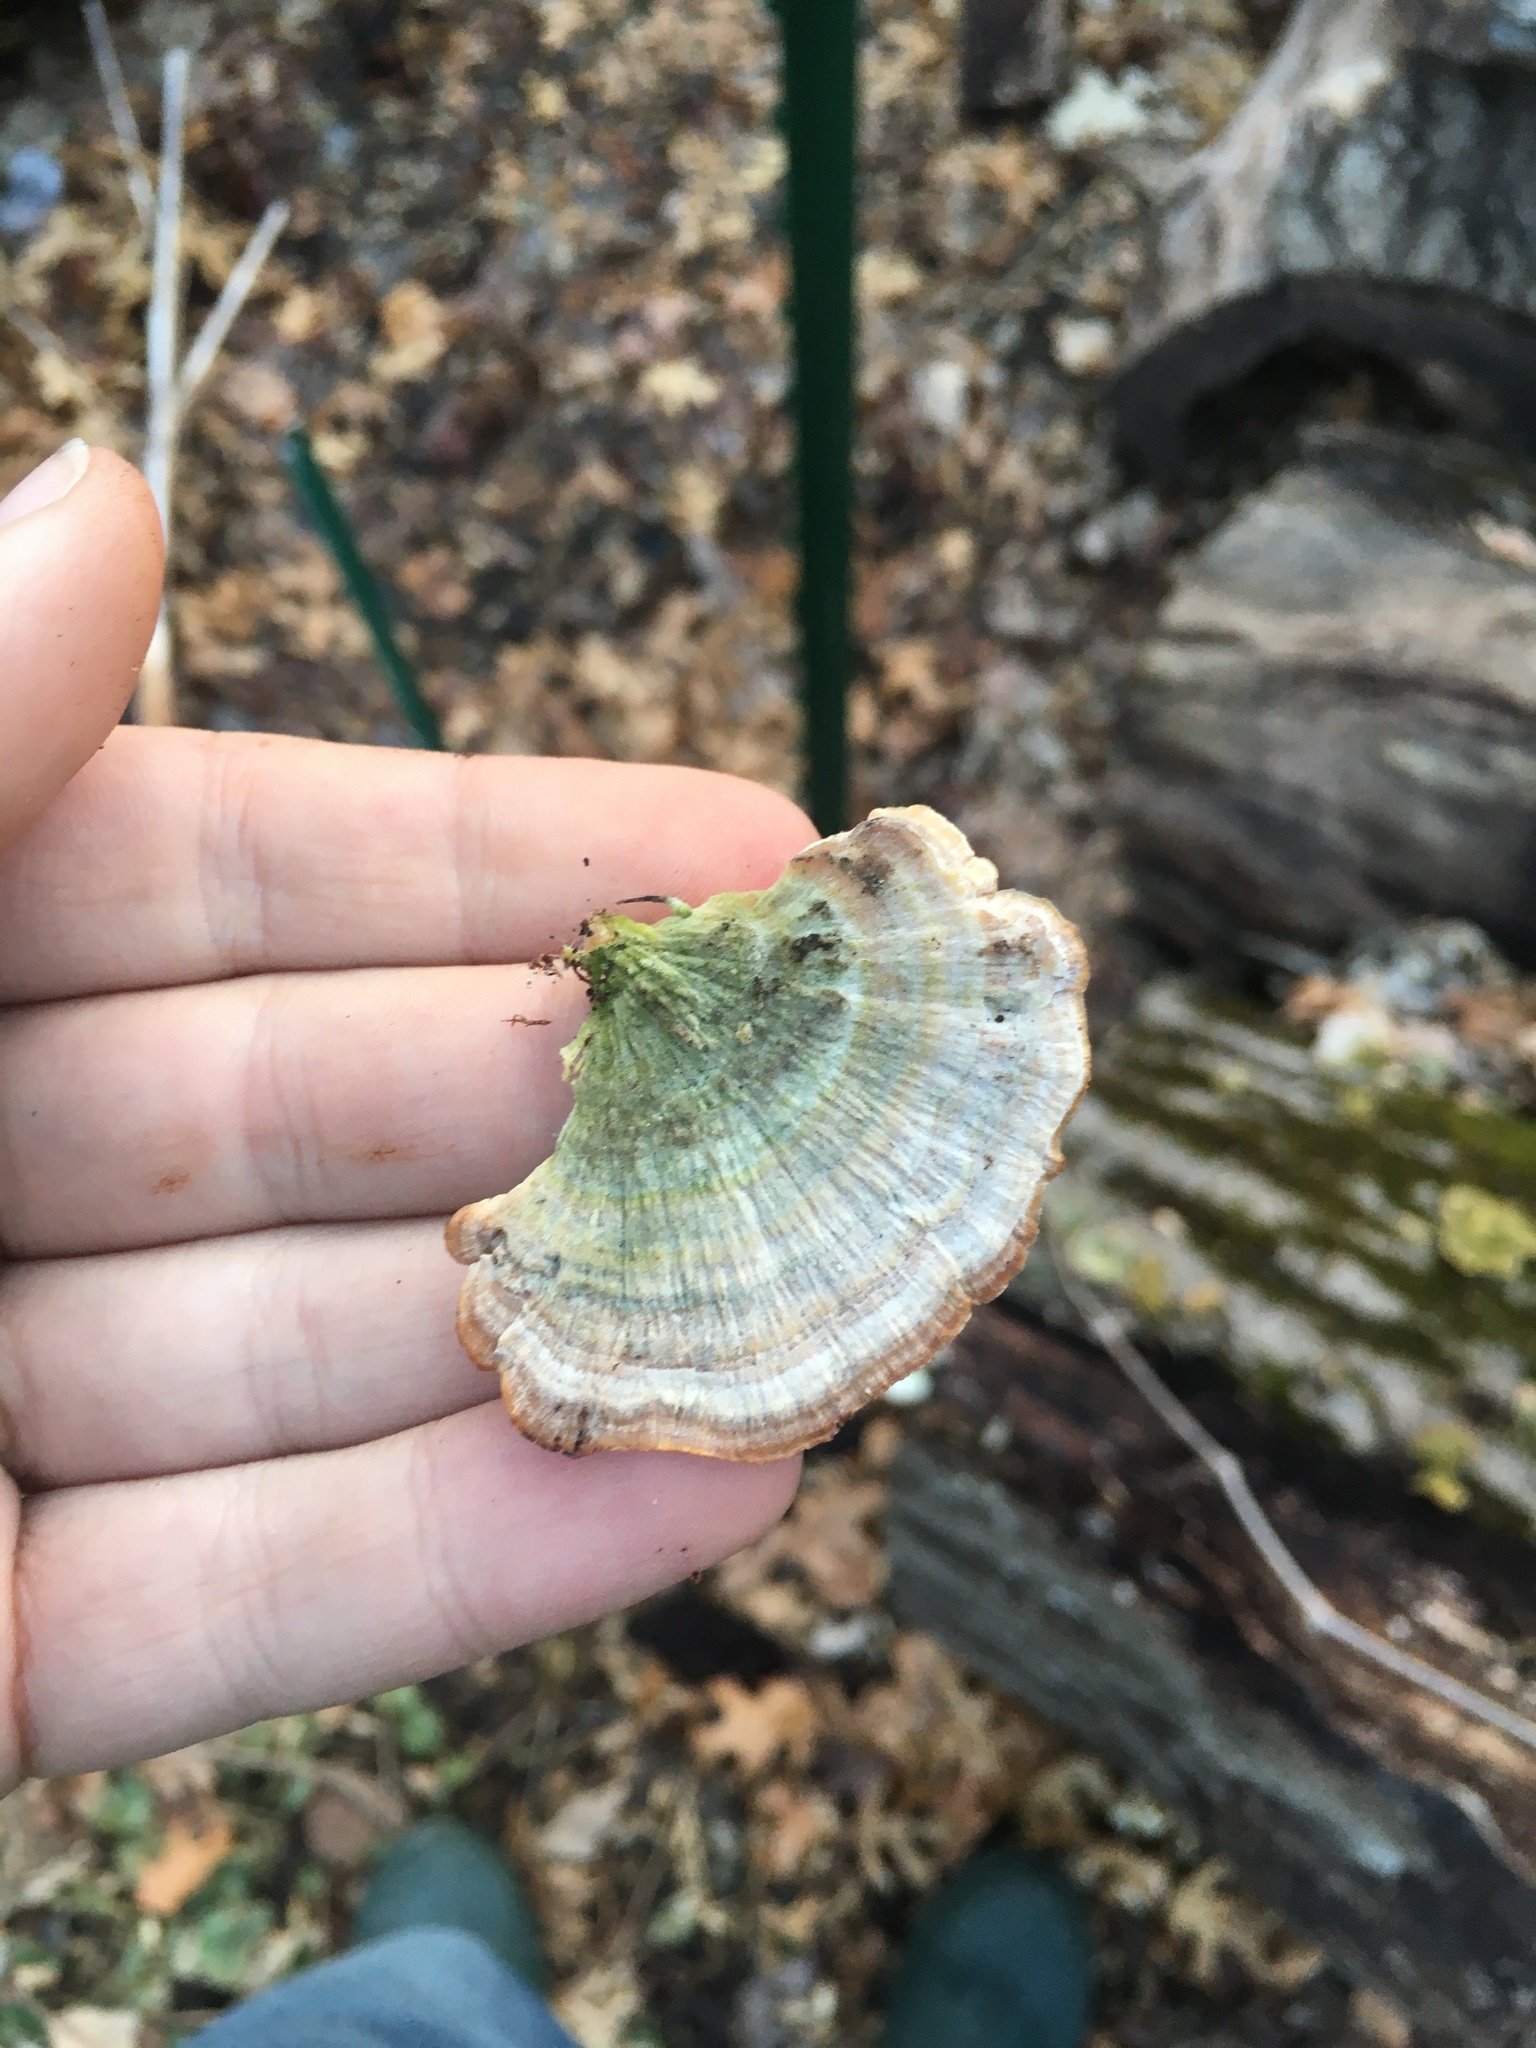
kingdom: Fungi
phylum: Basidiomycota
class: Agaricomycetes
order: Hymenochaetales
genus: Trichaptum
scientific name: Trichaptum biforme
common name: Violet-toothed polypore
